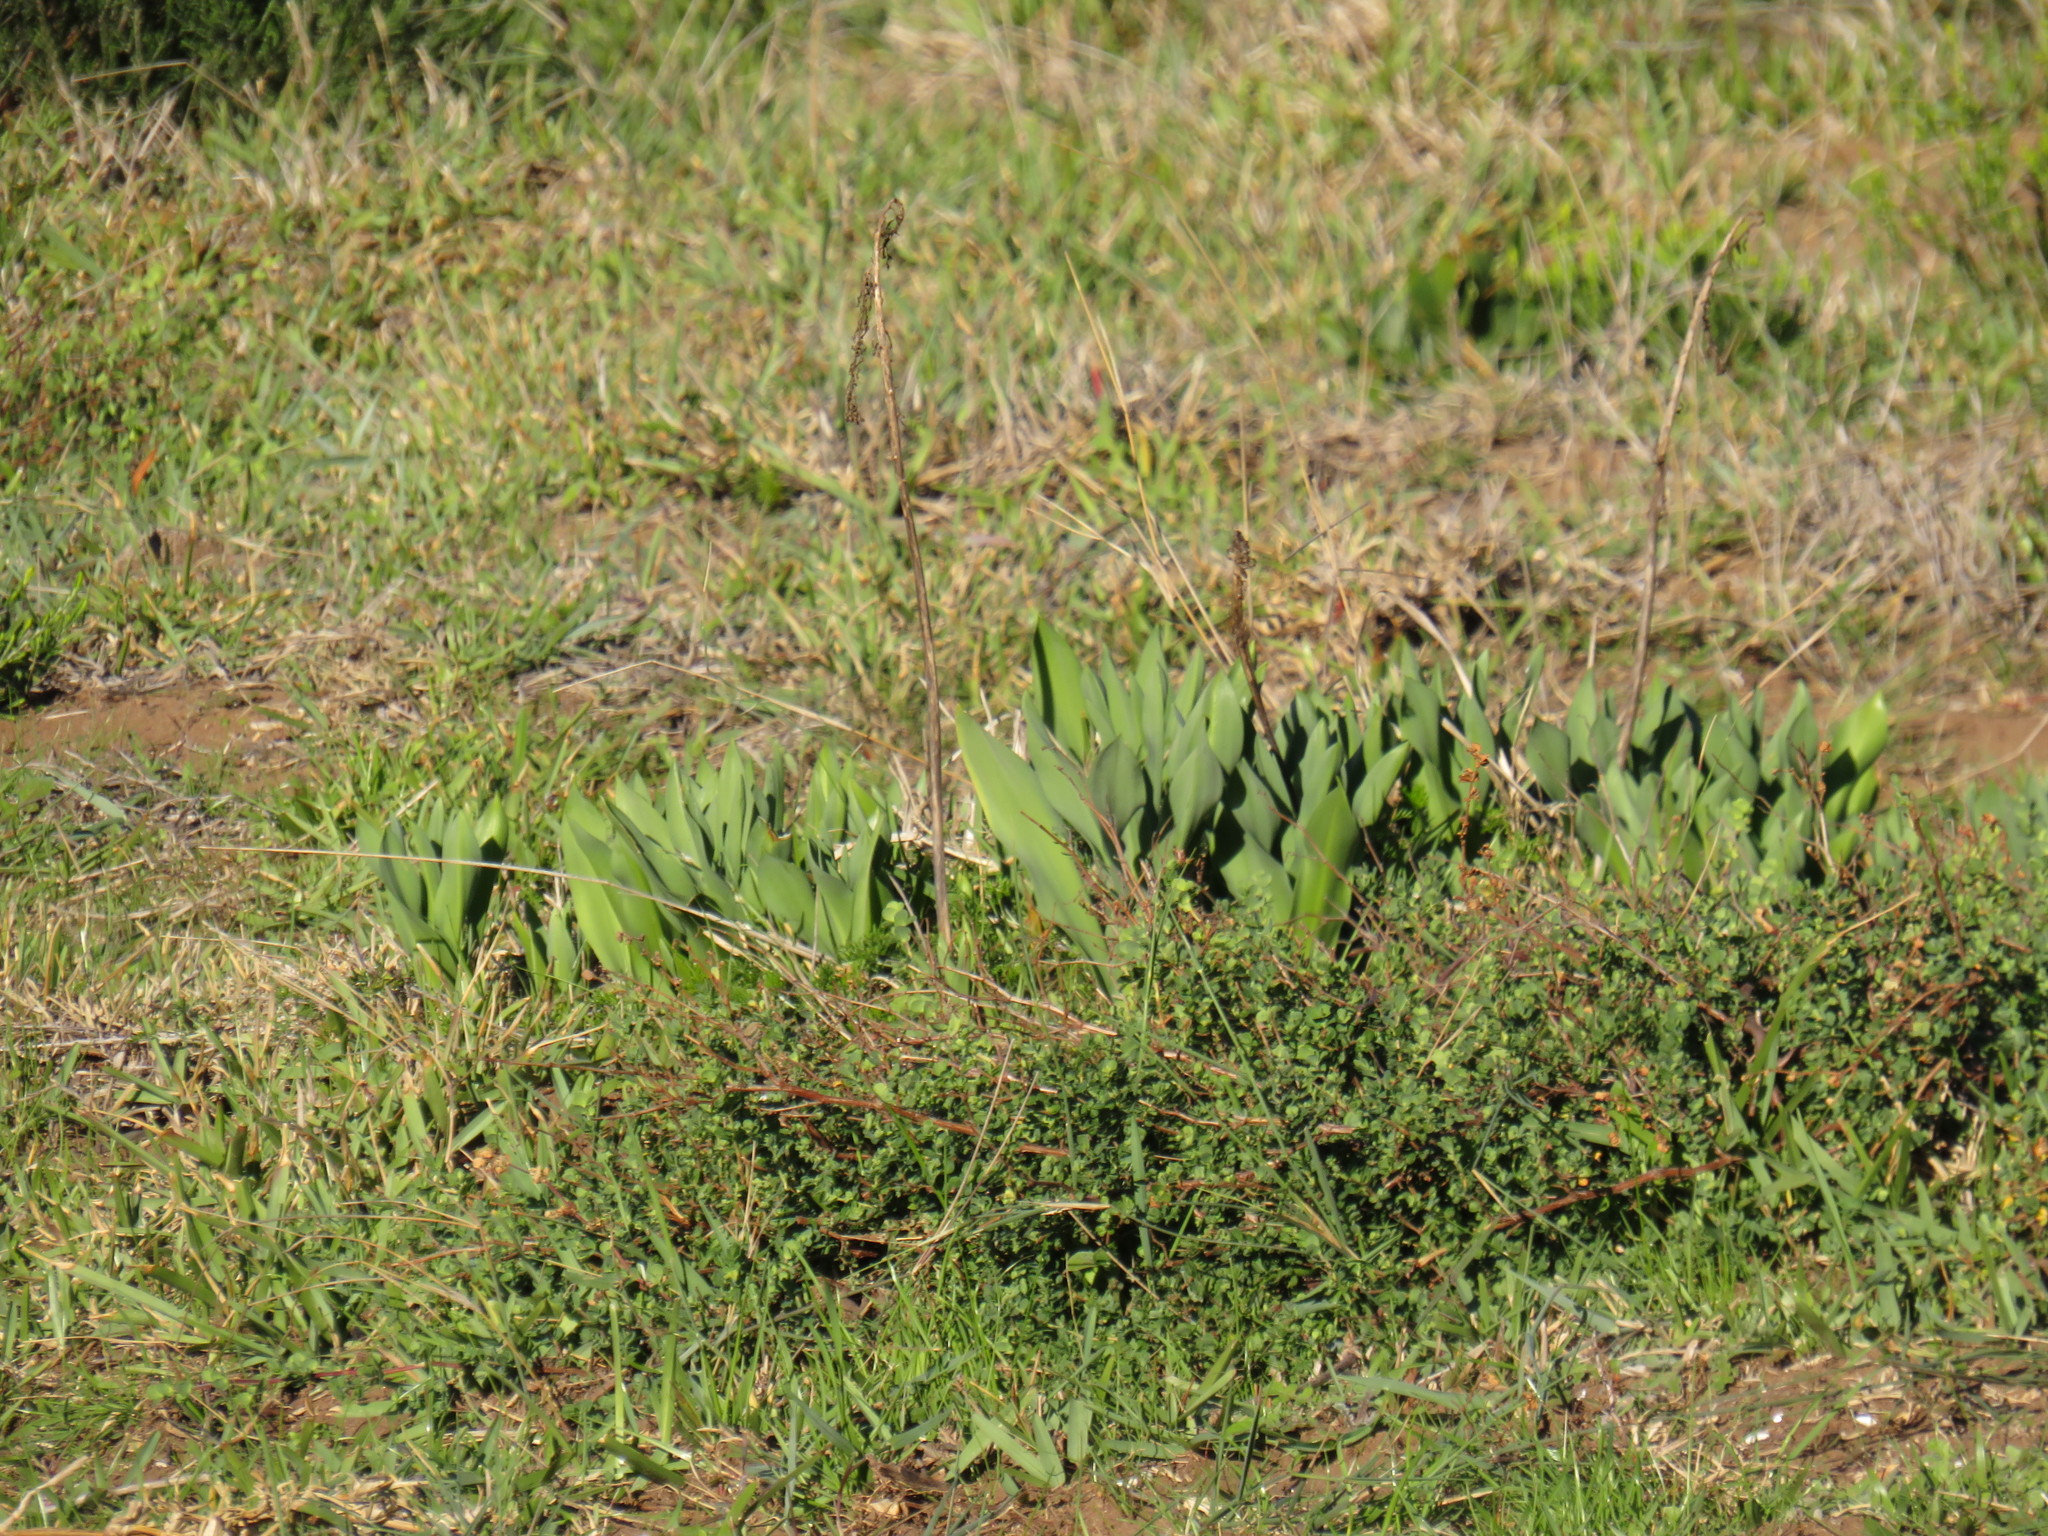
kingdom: Plantae
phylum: Tracheophyta
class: Liliopsida
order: Asparagales
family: Asparagaceae
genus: Drimia
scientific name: Drimia elata
